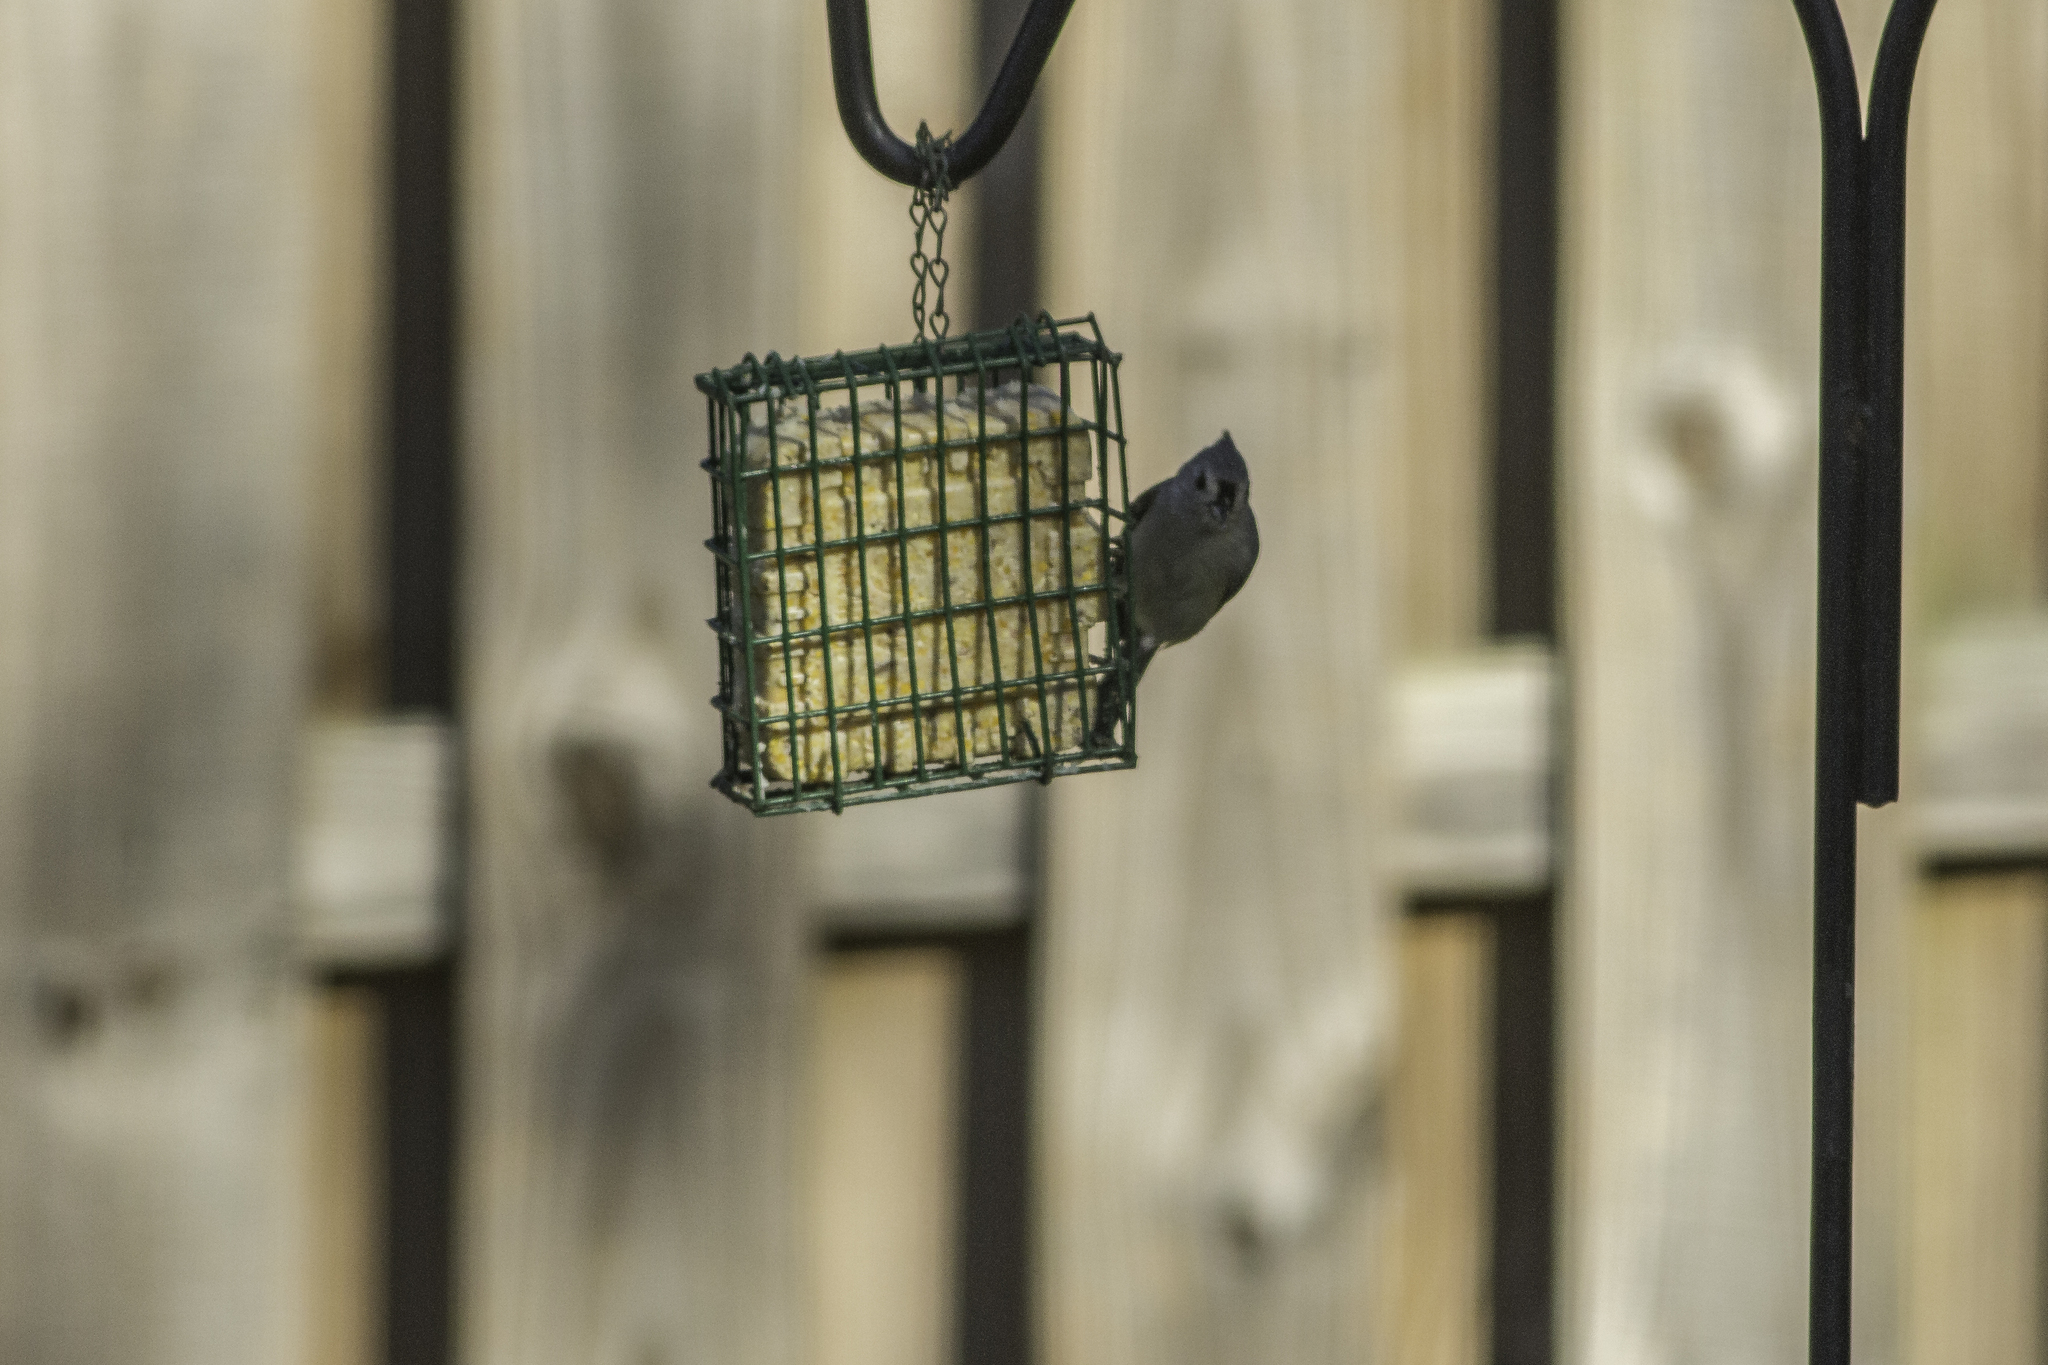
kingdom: Animalia
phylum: Chordata
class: Aves
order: Passeriformes
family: Paridae
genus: Baeolophus
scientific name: Baeolophus bicolor
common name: Tufted titmouse
